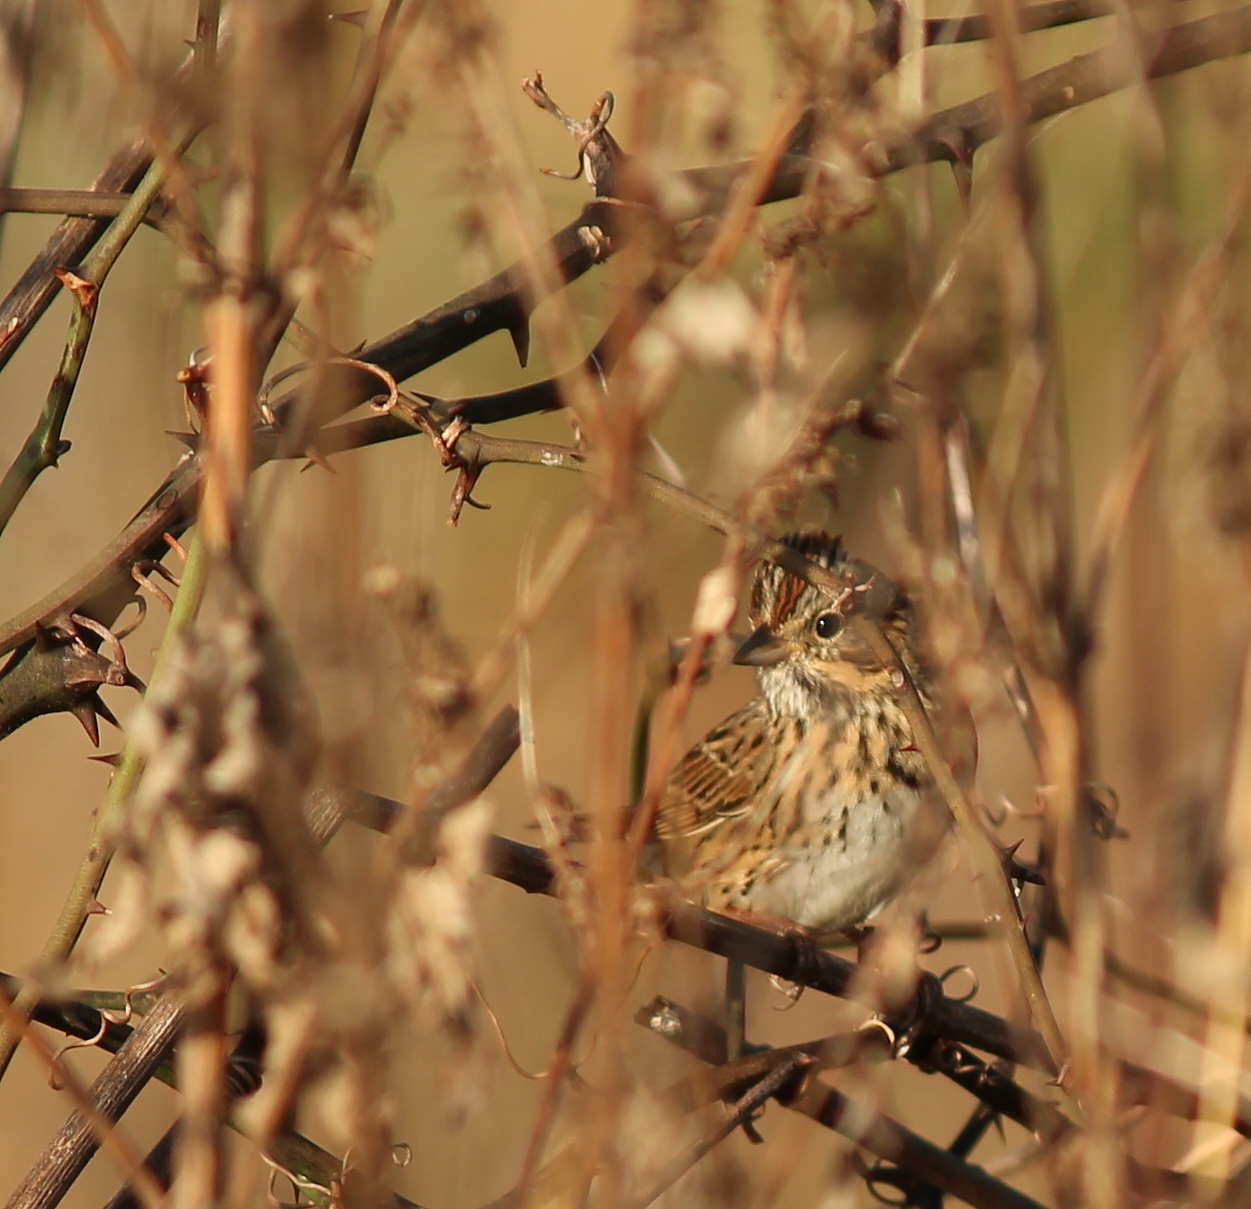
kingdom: Animalia
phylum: Chordata
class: Aves
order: Passeriformes
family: Passerellidae
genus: Melospiza
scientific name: Melospiza lincolnii
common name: Lincoln's sparrow
